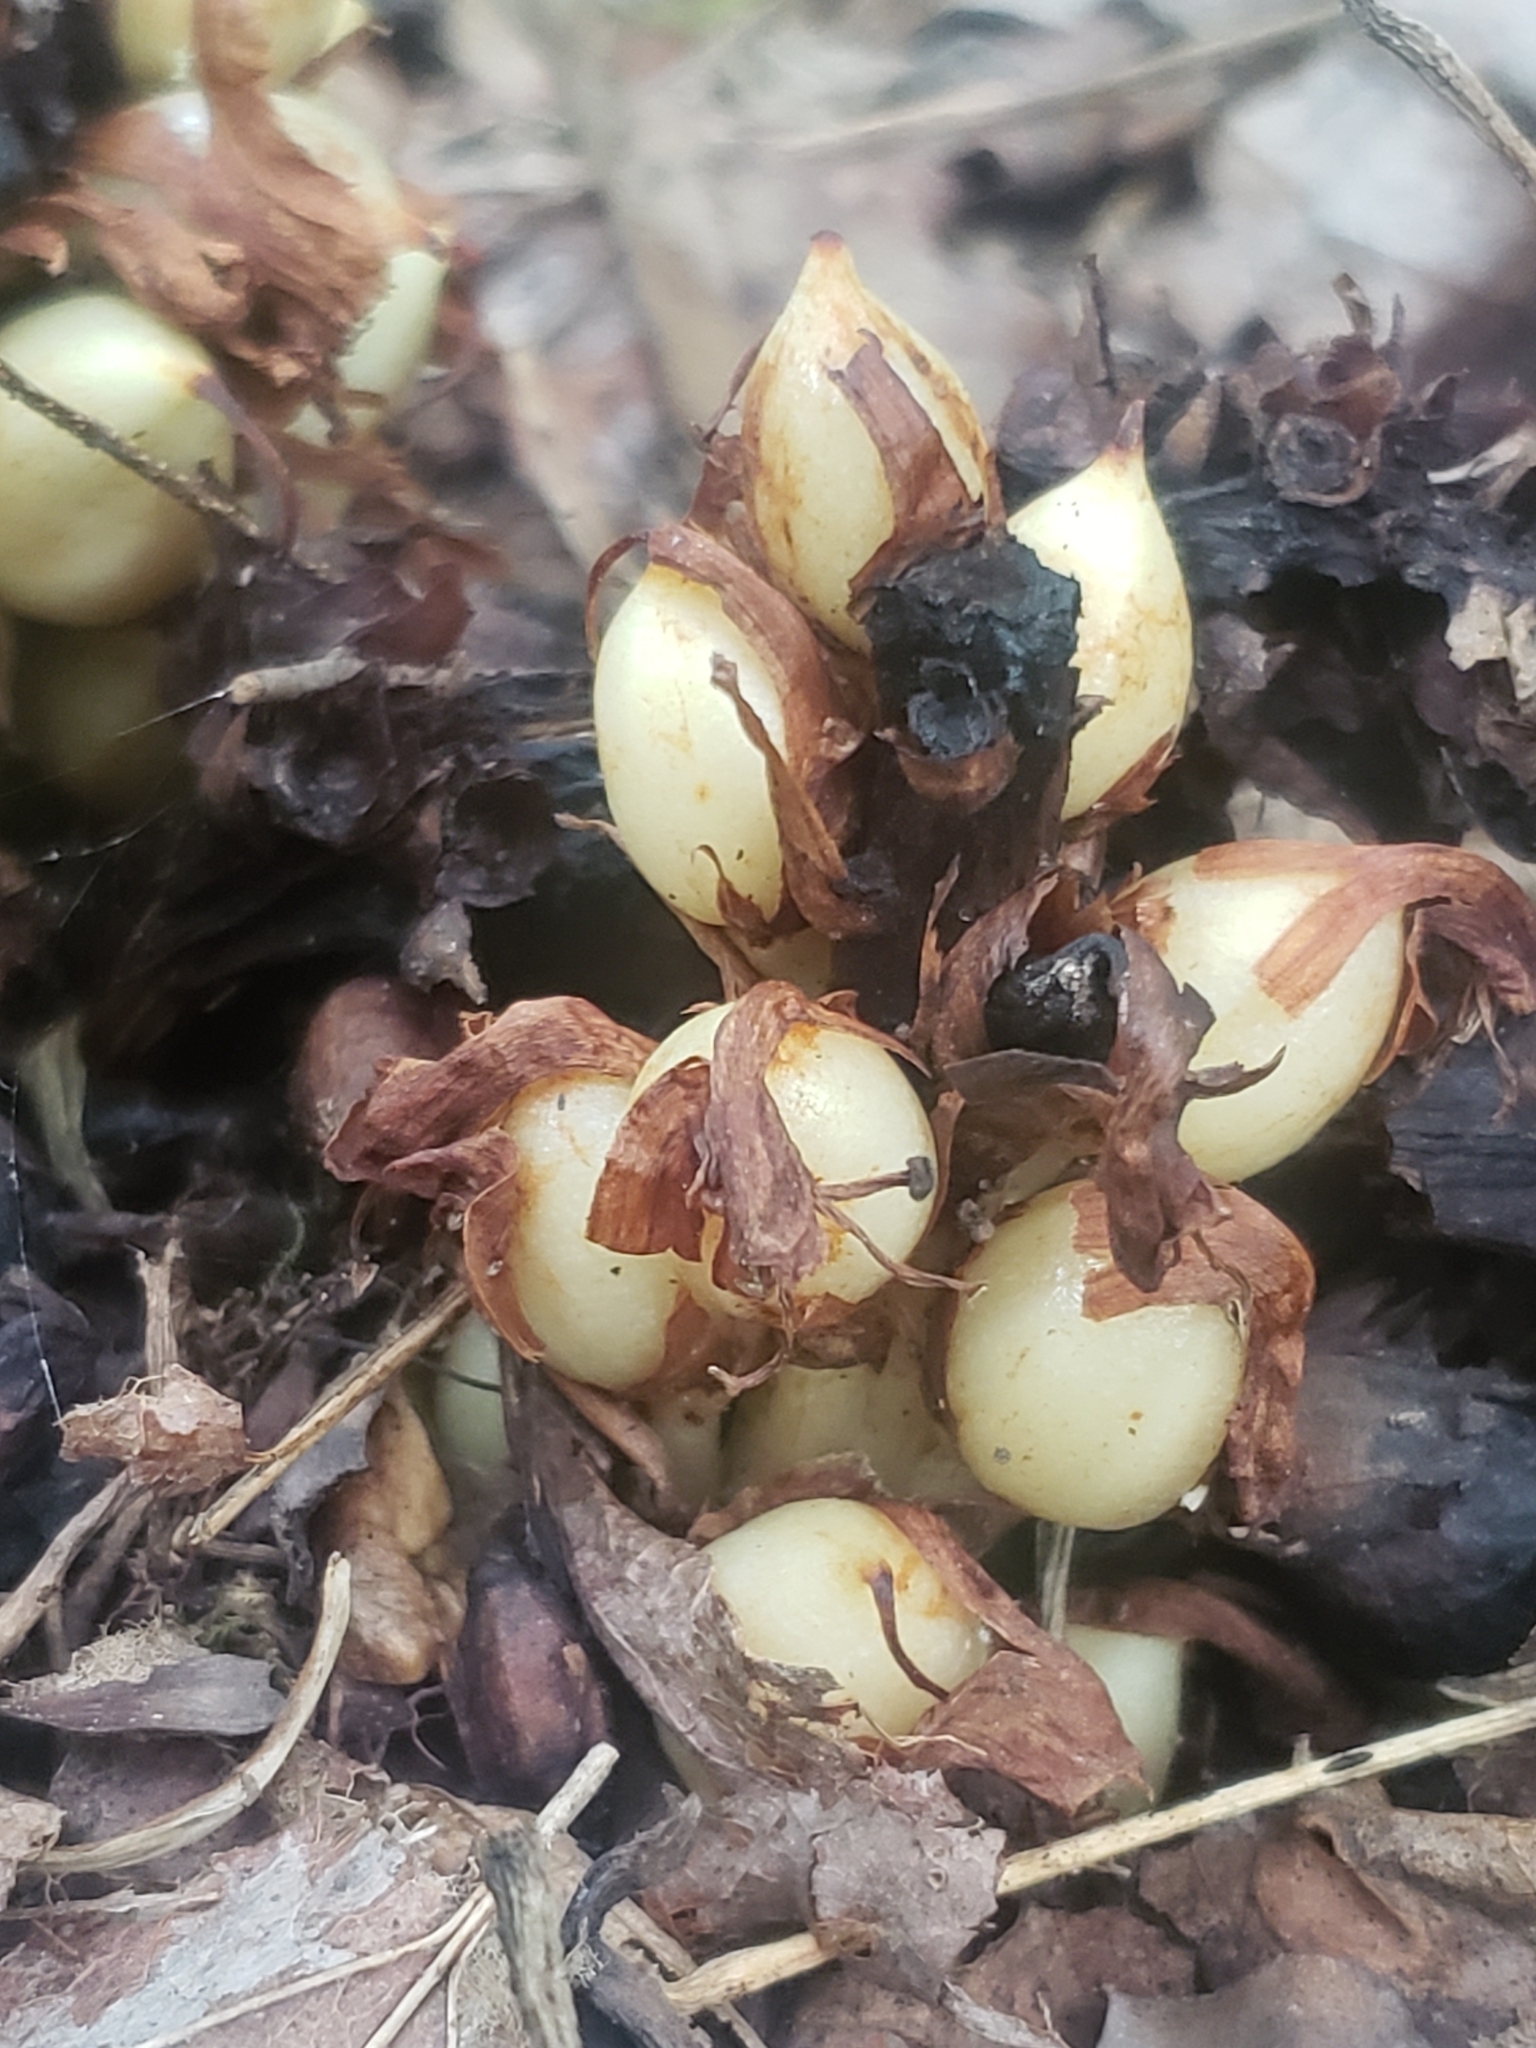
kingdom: Plantae
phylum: Tracheophyta
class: Magnoliopsida
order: Lamiales
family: Orobanchaceae
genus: Conopholis
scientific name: Conopholis americana
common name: American cancer-root
